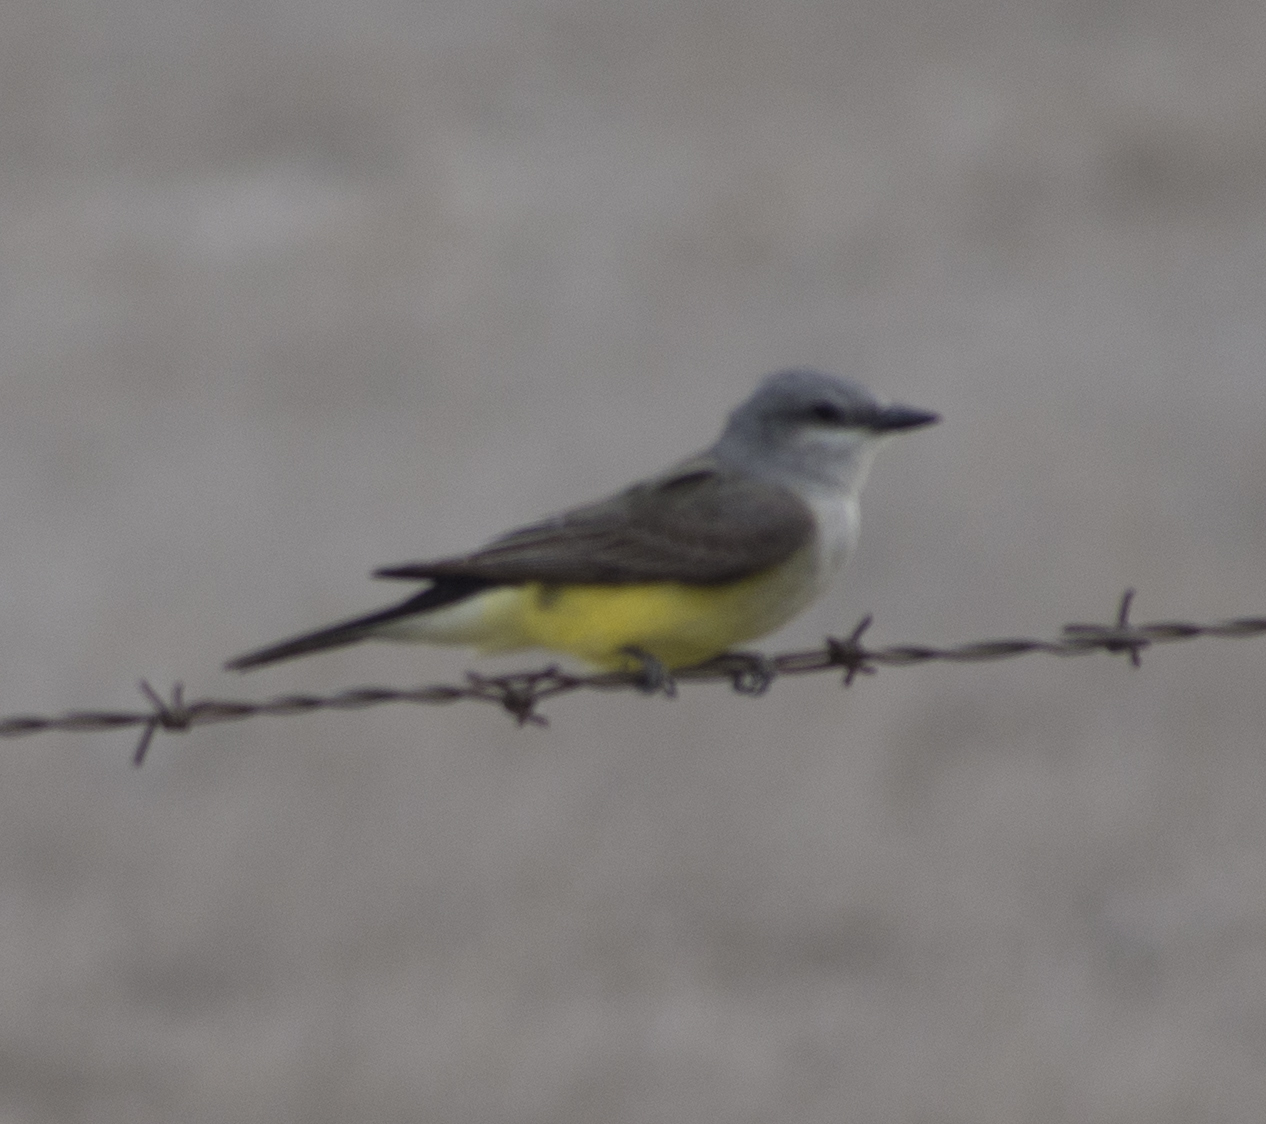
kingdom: Animalia
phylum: Chordata
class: Aves
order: Passeriformes
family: Tyrannidae
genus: Tyrannus
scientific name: Tyrannus verticalis
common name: Western kingbird
